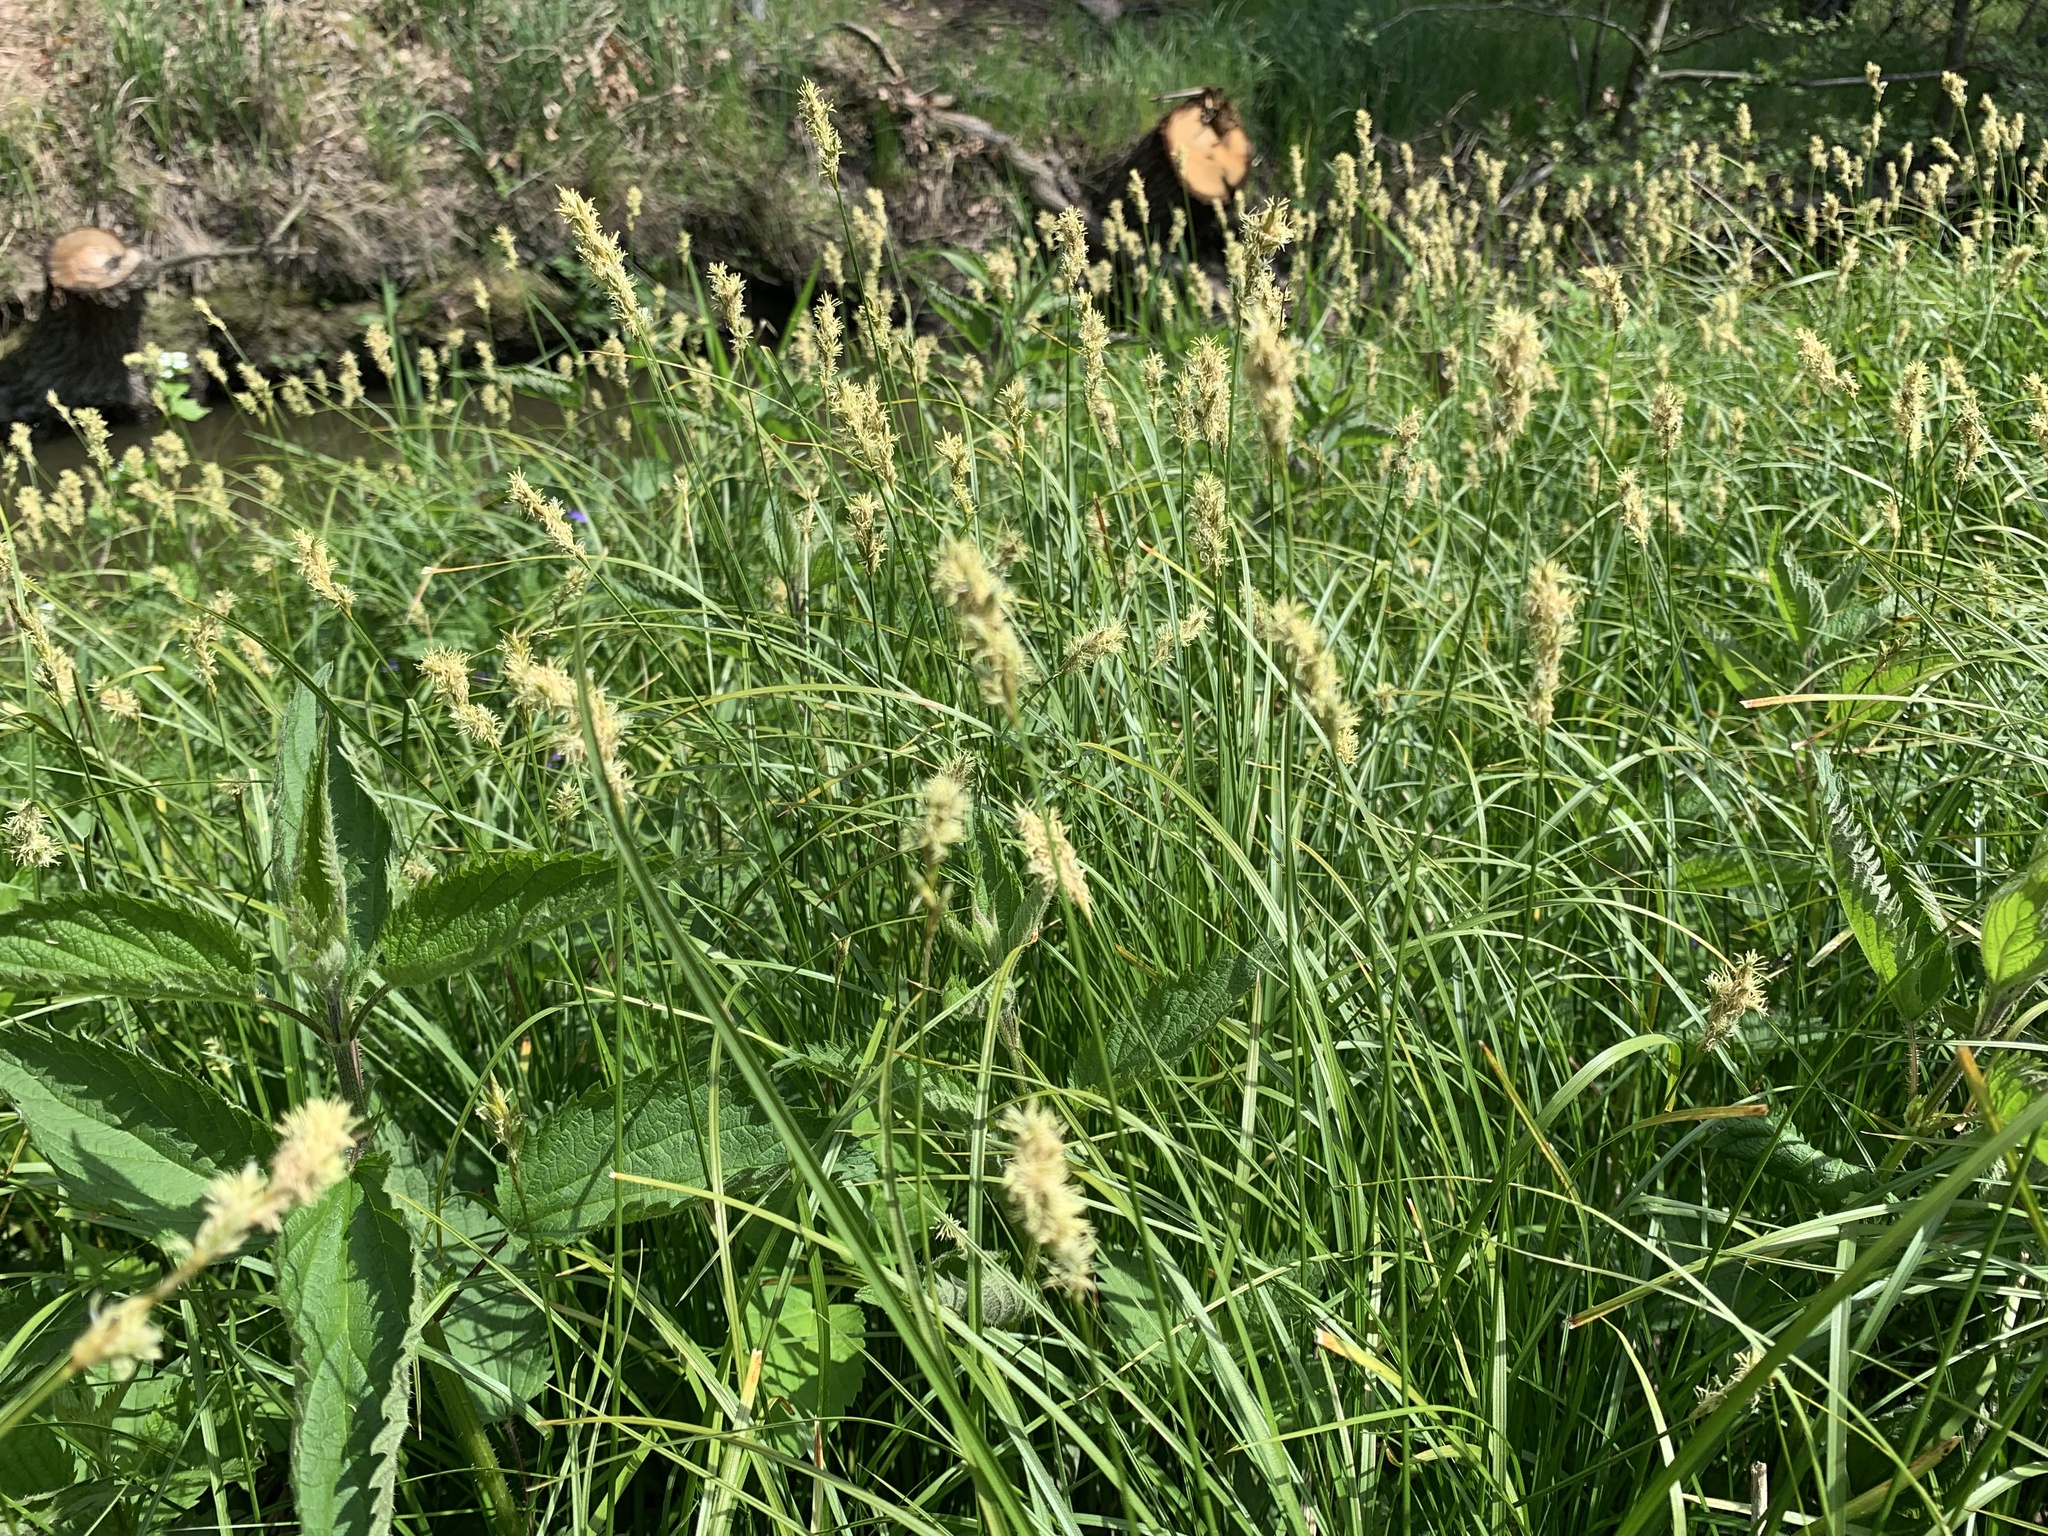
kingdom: Plantae
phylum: Tracheophyta
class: Liliopsida
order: Poales
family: Cyperaceae
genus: Carex
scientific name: Carex brizoides
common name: Quaking-grass sedge
